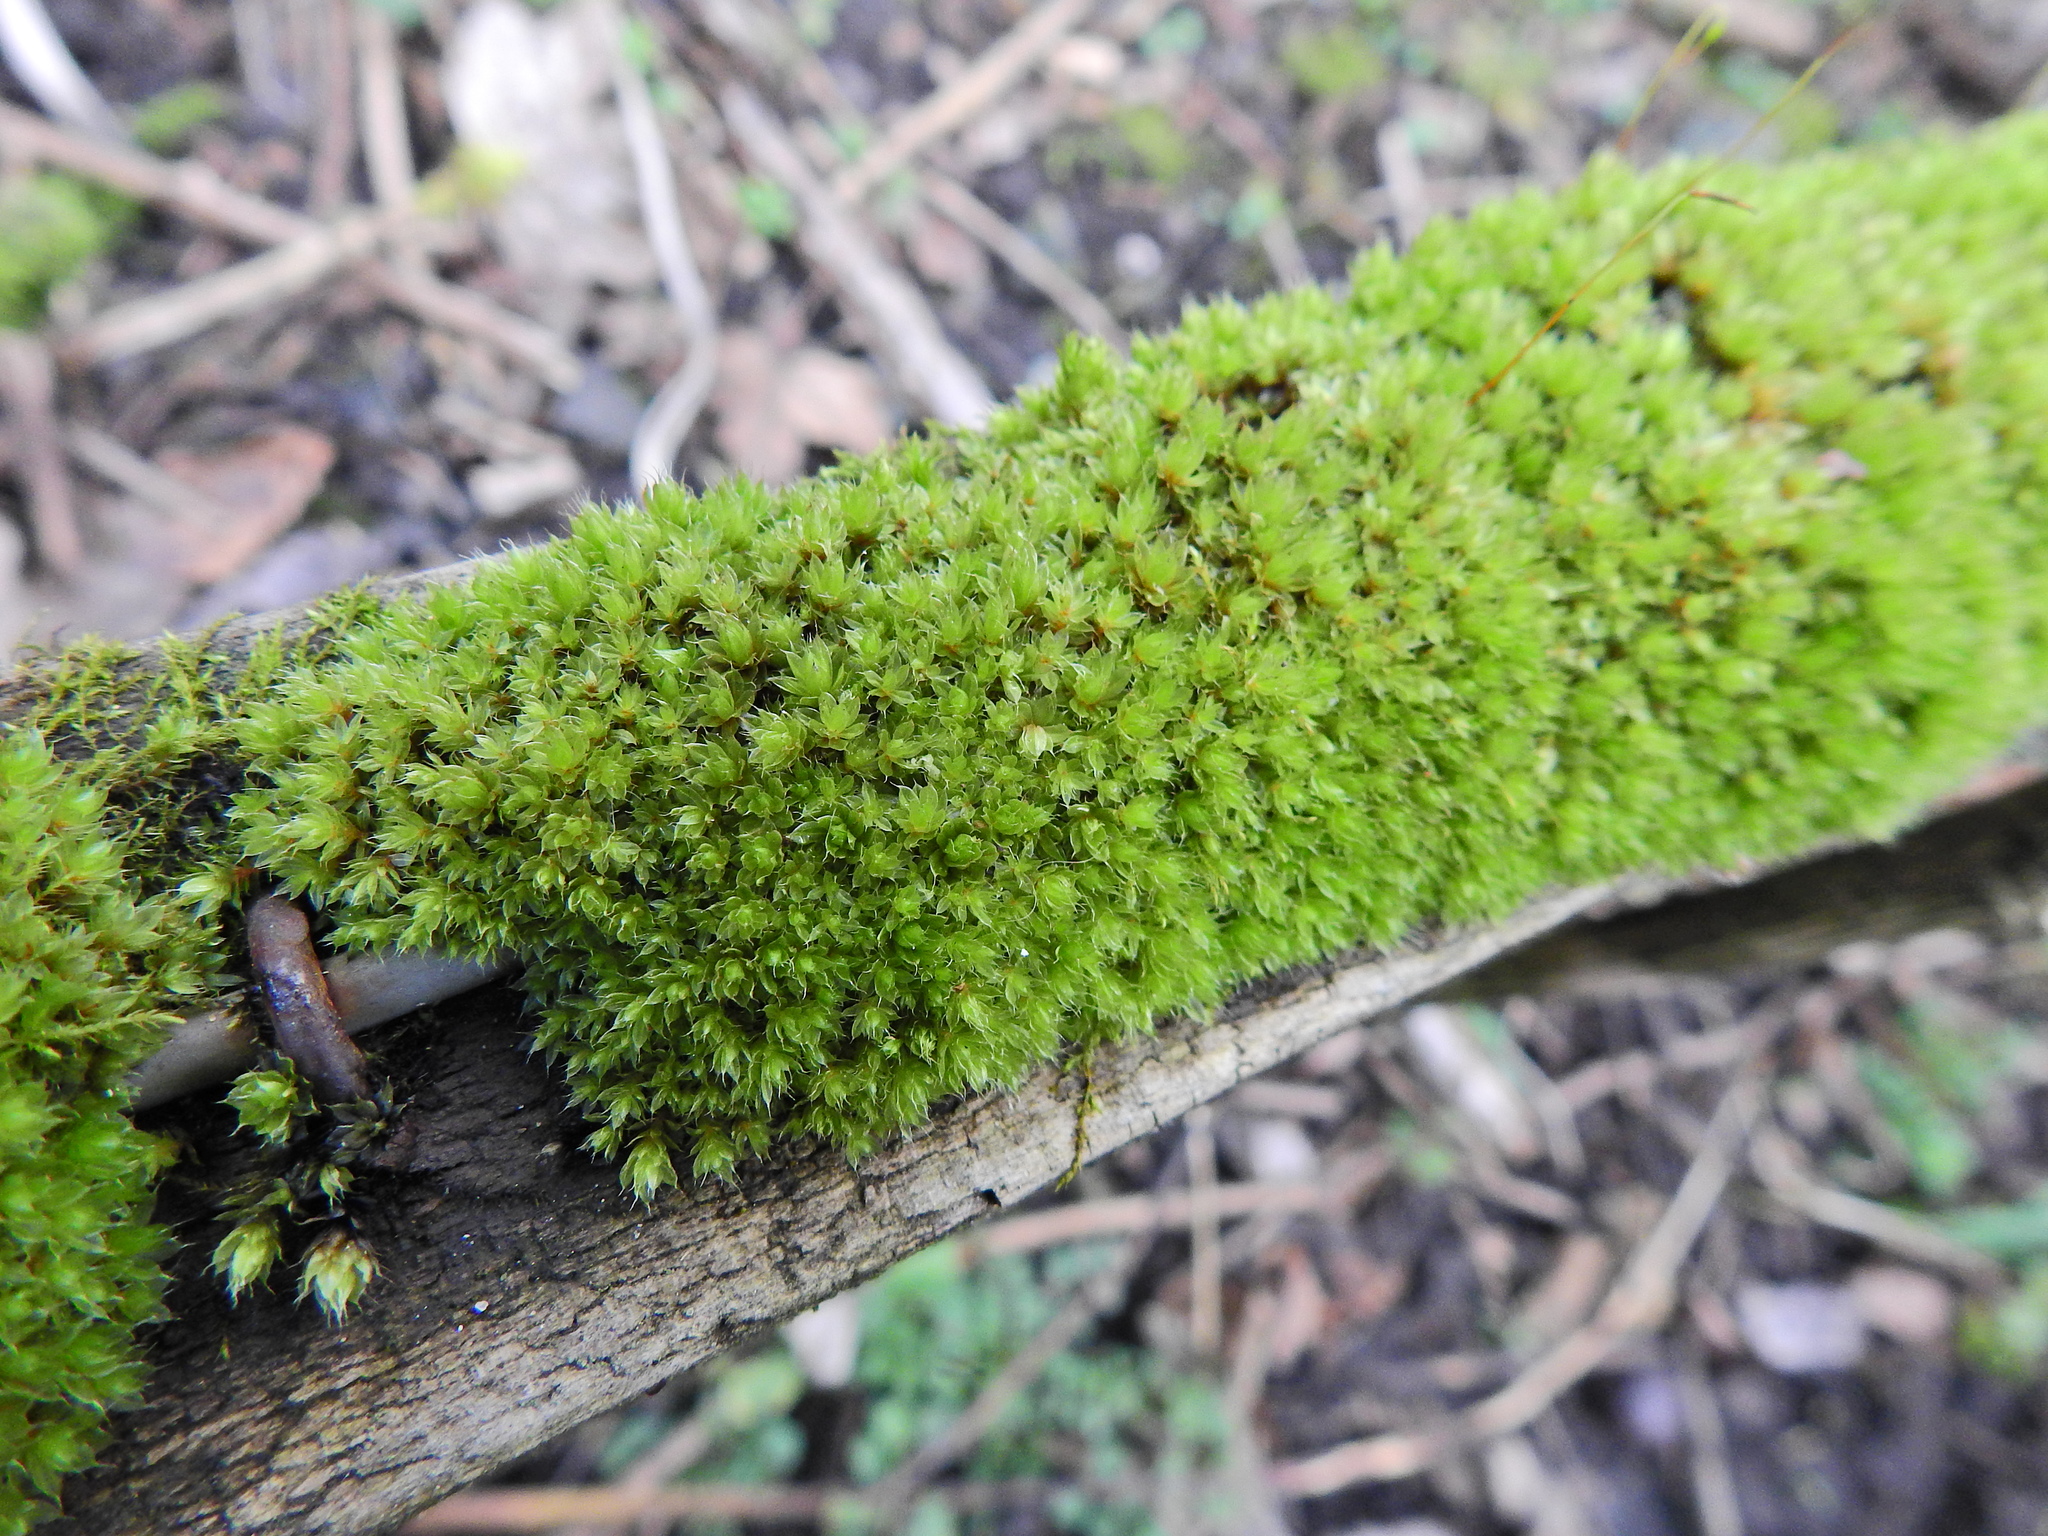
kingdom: Plantae
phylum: Bryophyta
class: Bryopsida
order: Bryales
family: Bryaceae
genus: Rosulabryum
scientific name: Rosulabryum capillare
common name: Capillary thread-moss
